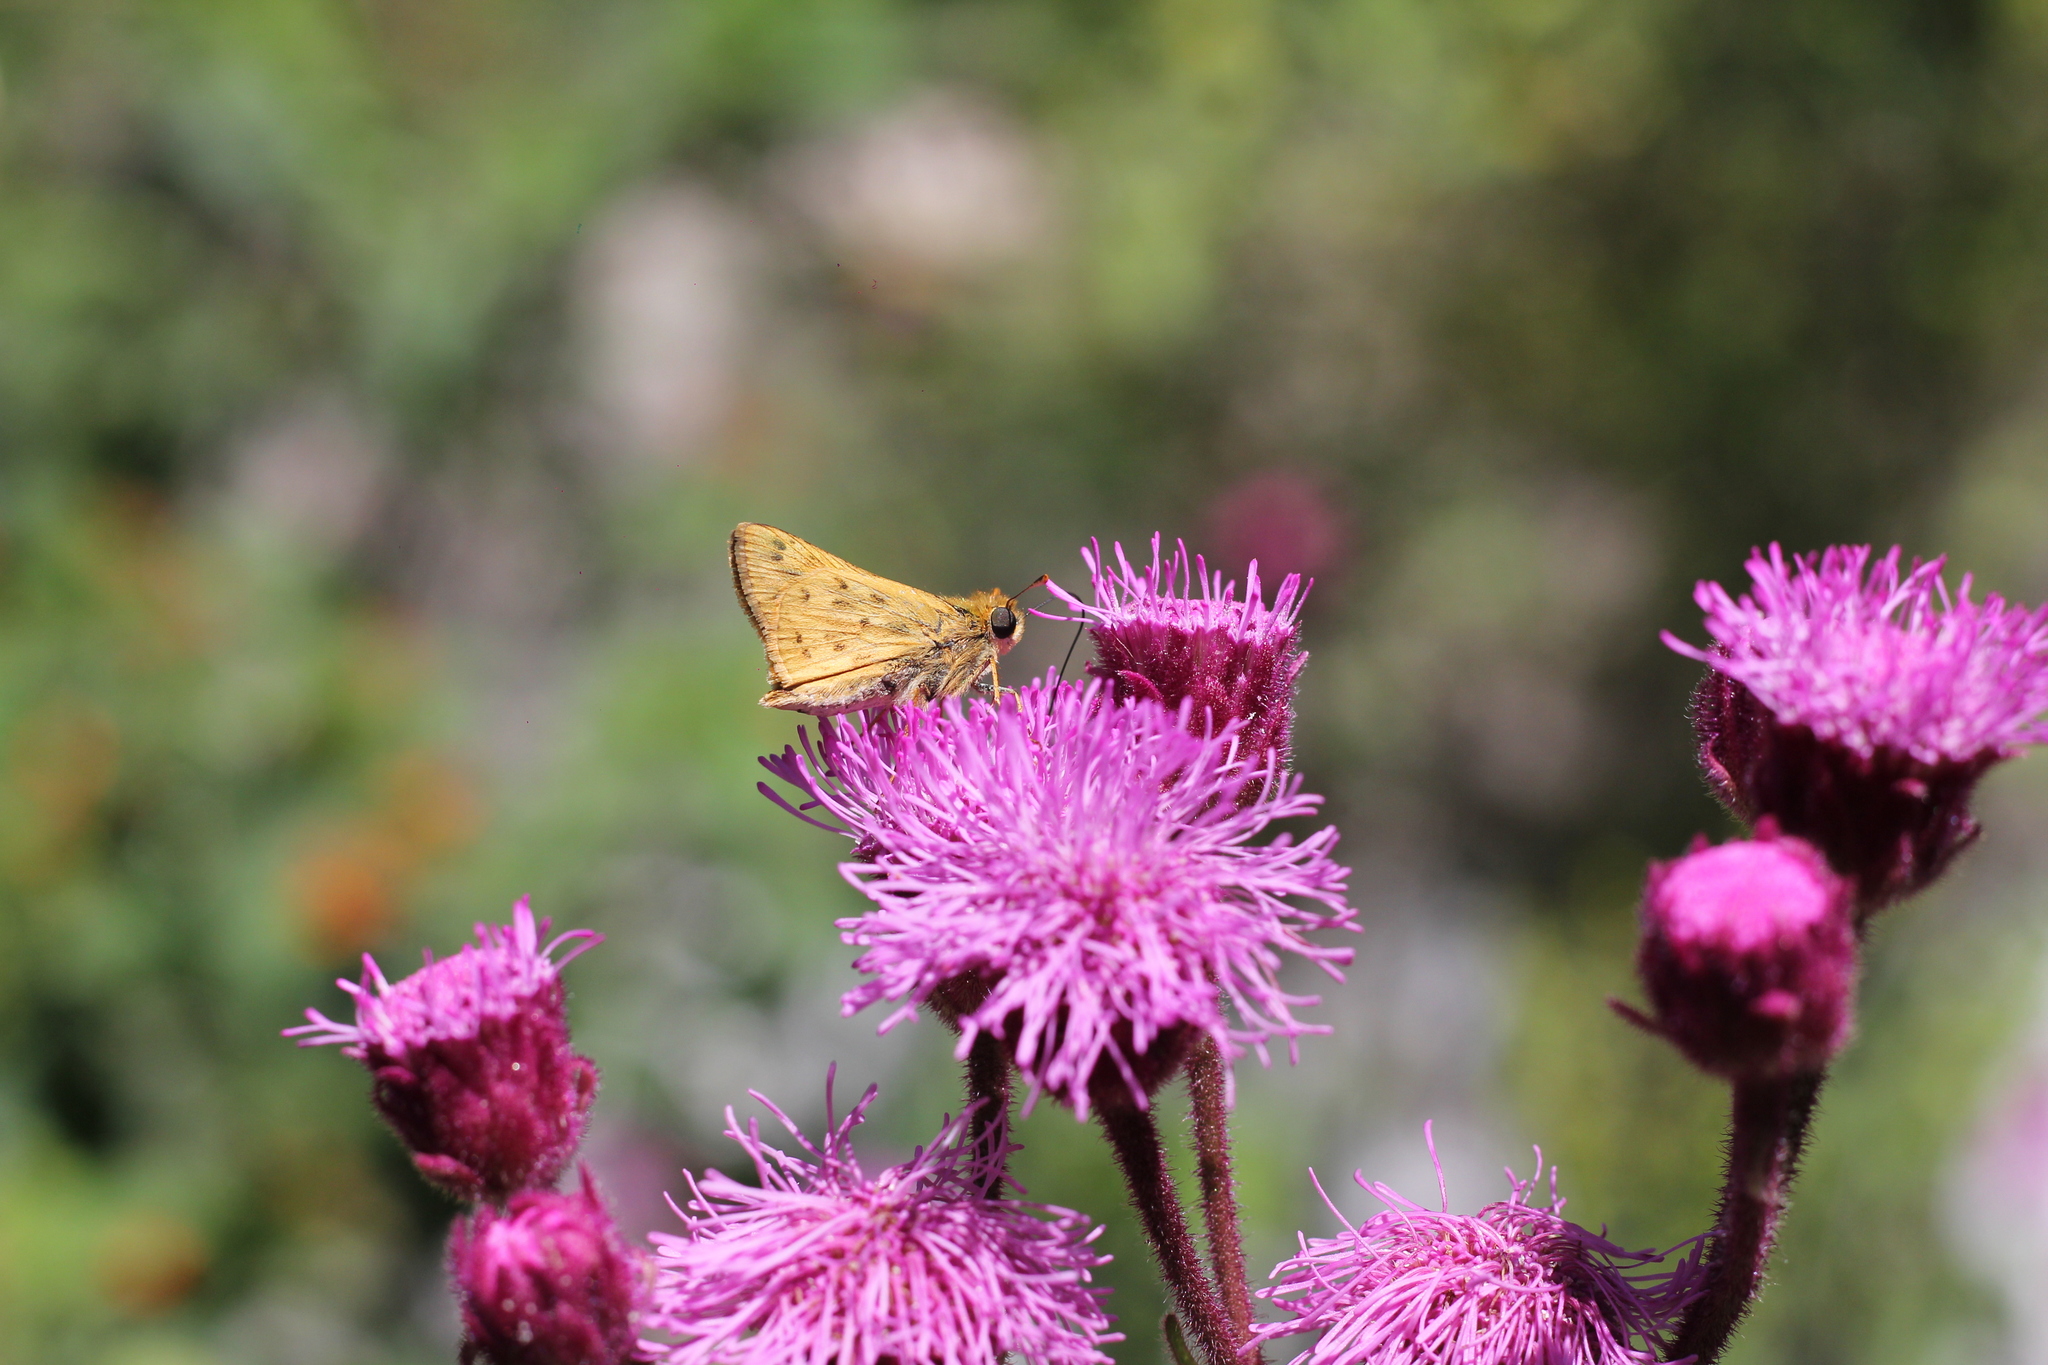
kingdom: Animalia
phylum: Arthropoda
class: Insecta
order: Lepidoptera
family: Hesperiidae
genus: Hylephila
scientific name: Hylephila phyleus
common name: Fiery skipper
